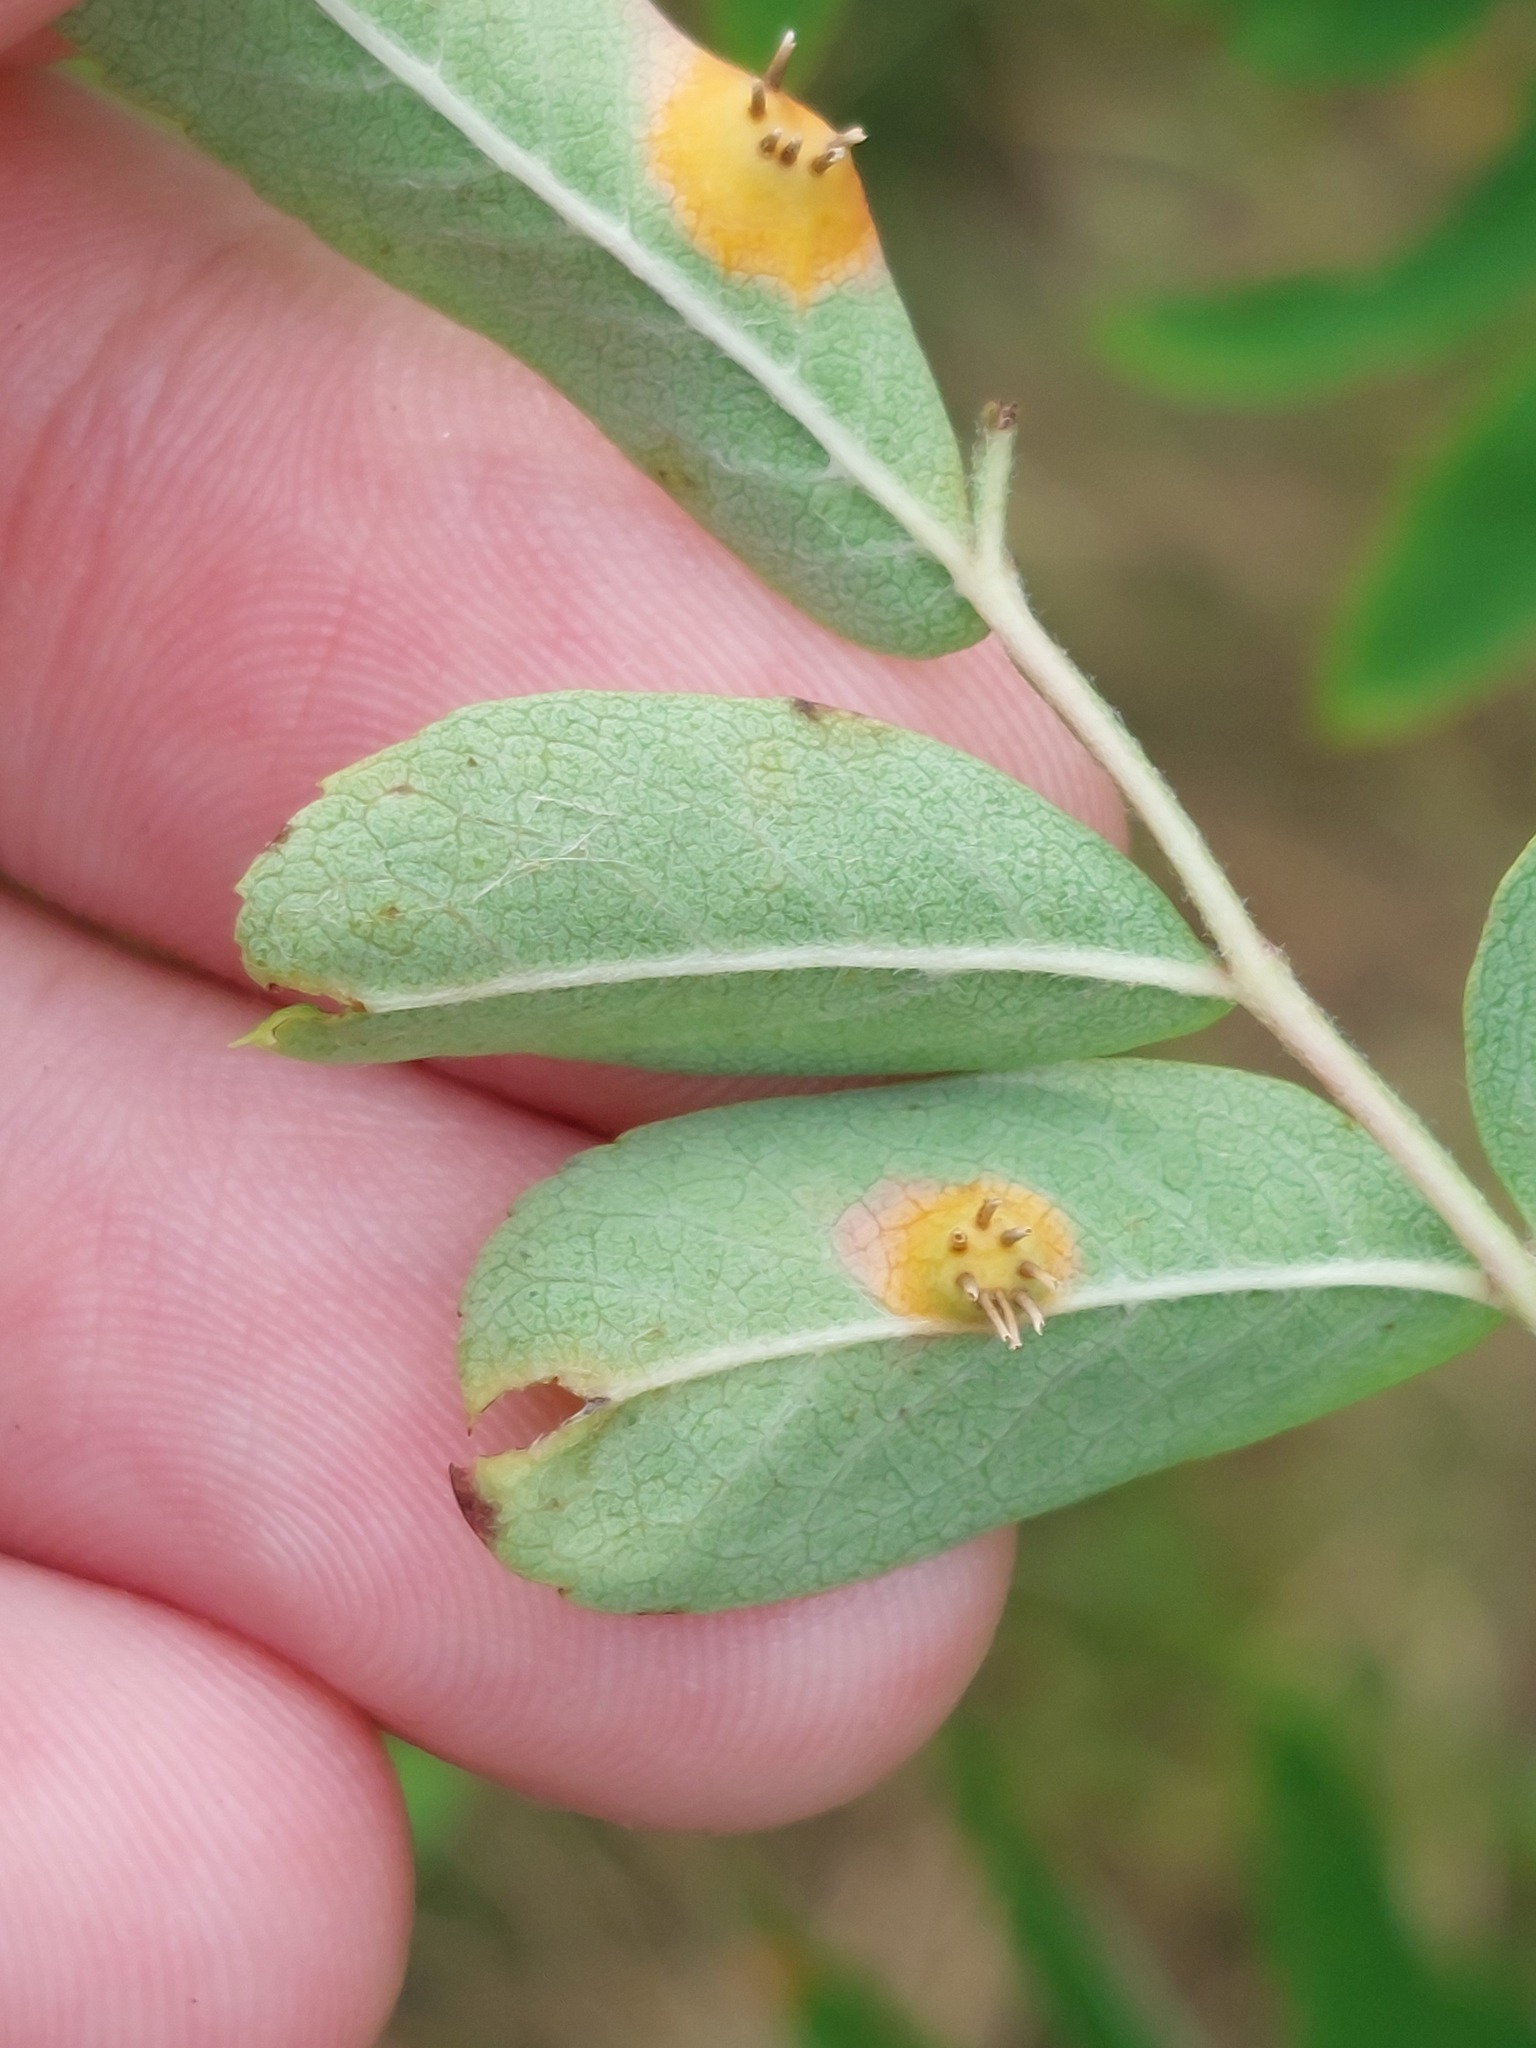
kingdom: Fungi
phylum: Basidiomycota
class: Pucciniomycetes
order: Pucciniales
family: Gymnosporangiaceae
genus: Gymnosporangium
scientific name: Gymnosporangium cornutum
